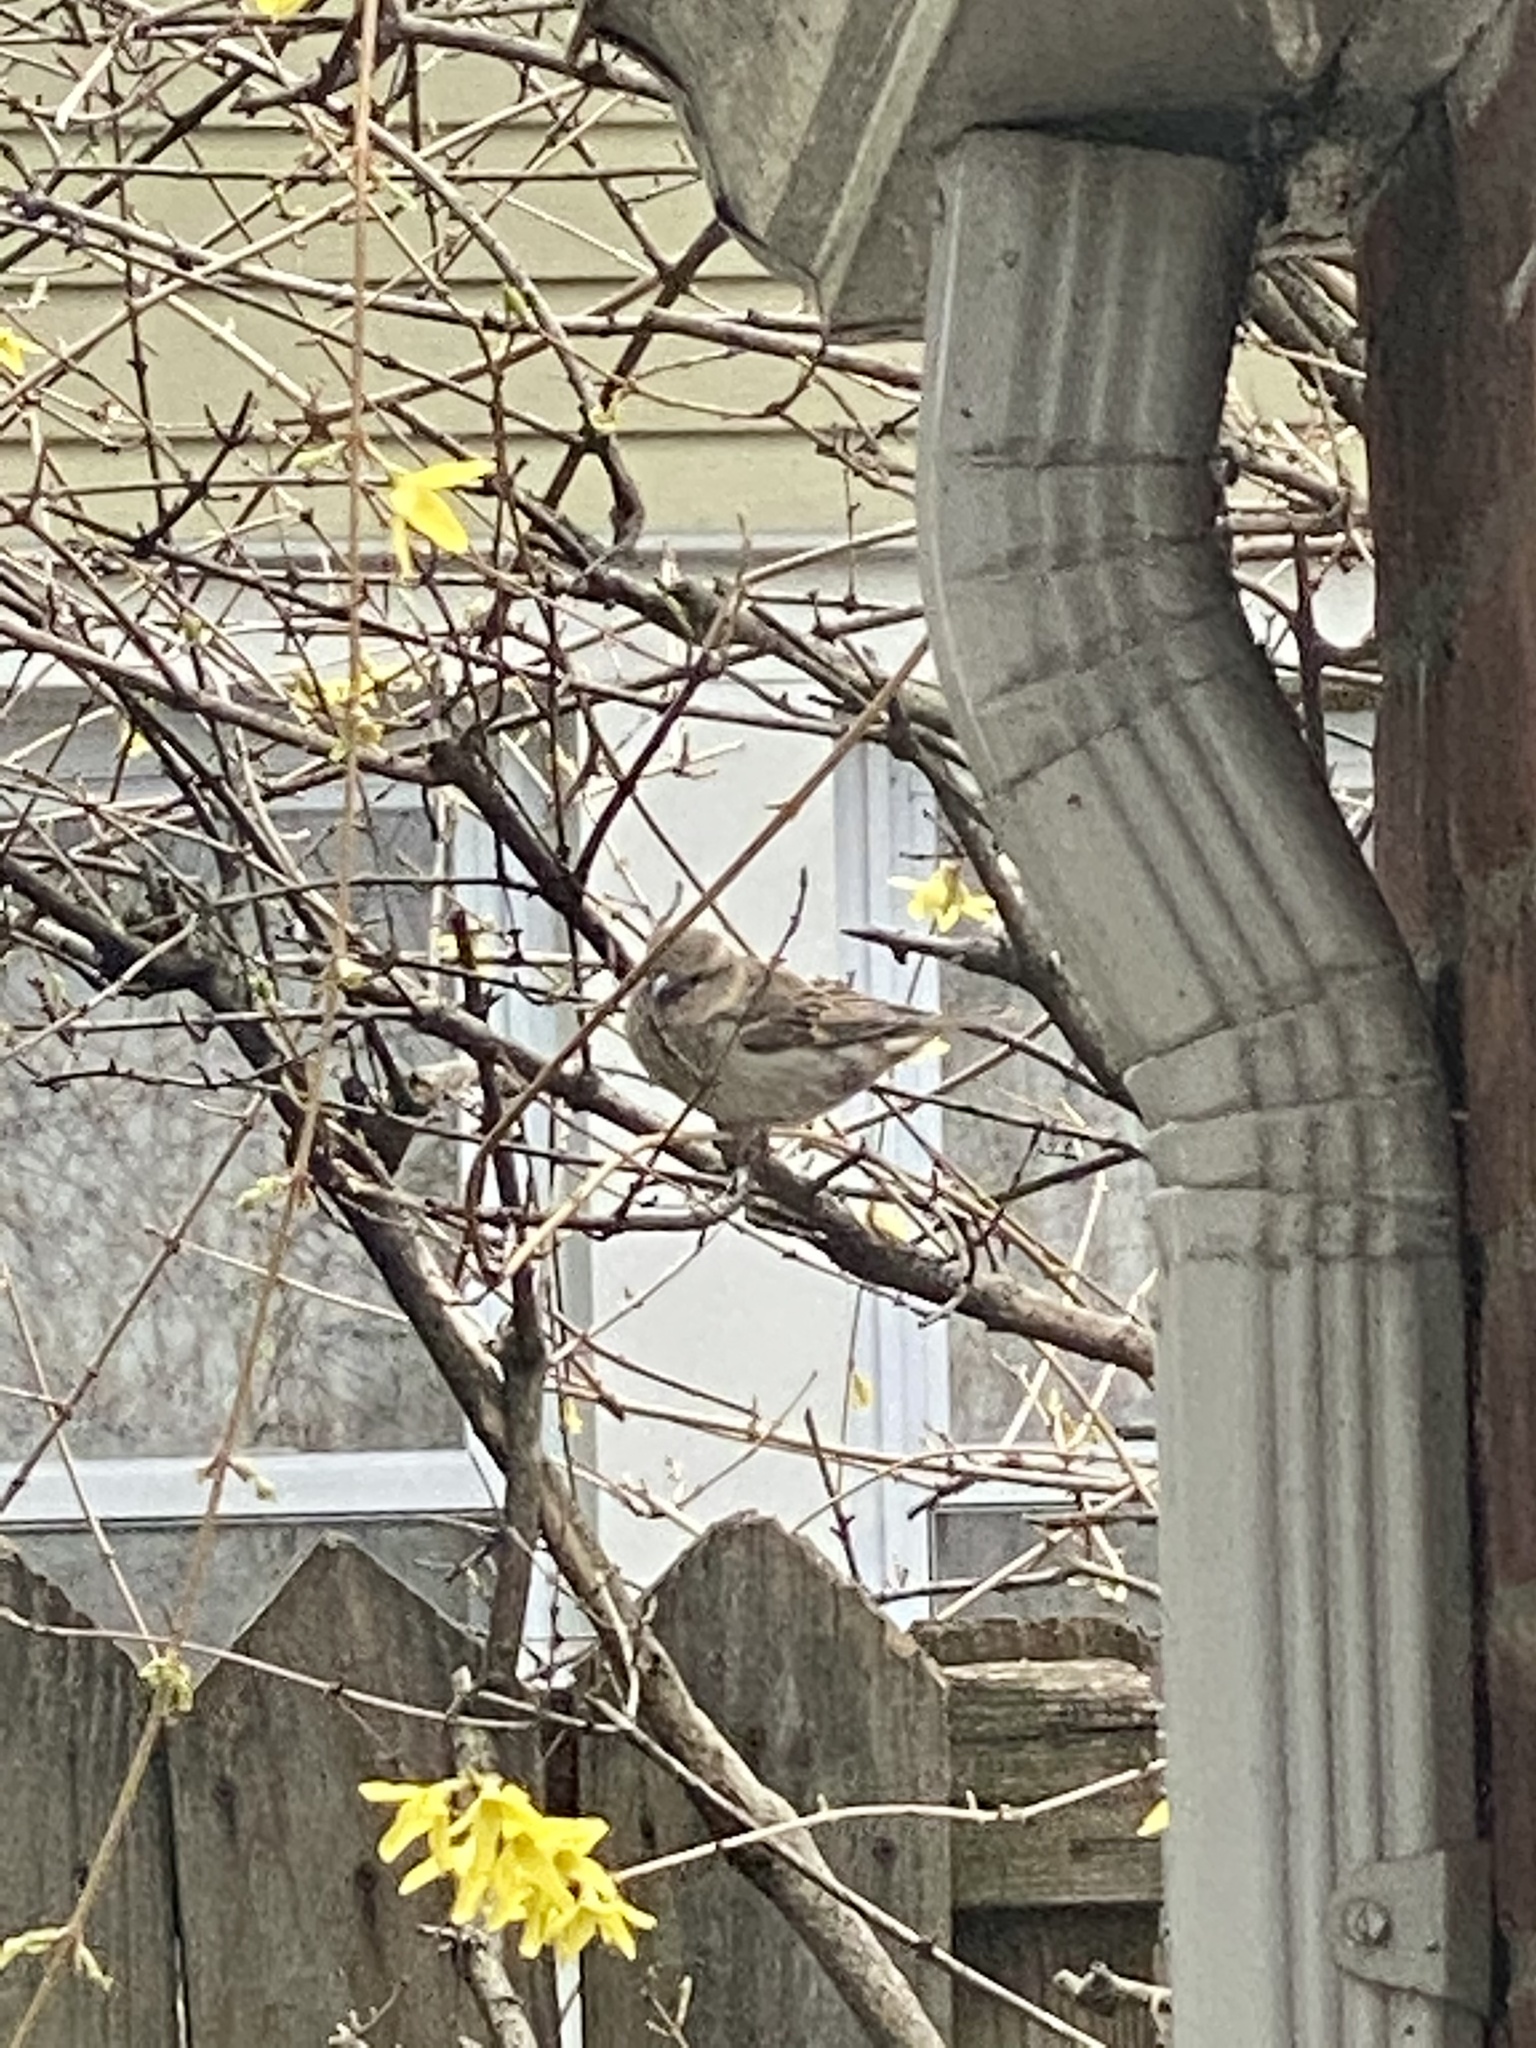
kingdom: Animalia
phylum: Chordata
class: Aves
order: Passeriformes
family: Passeridae
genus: Passer
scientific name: Passer domesticus
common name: House sparrow
